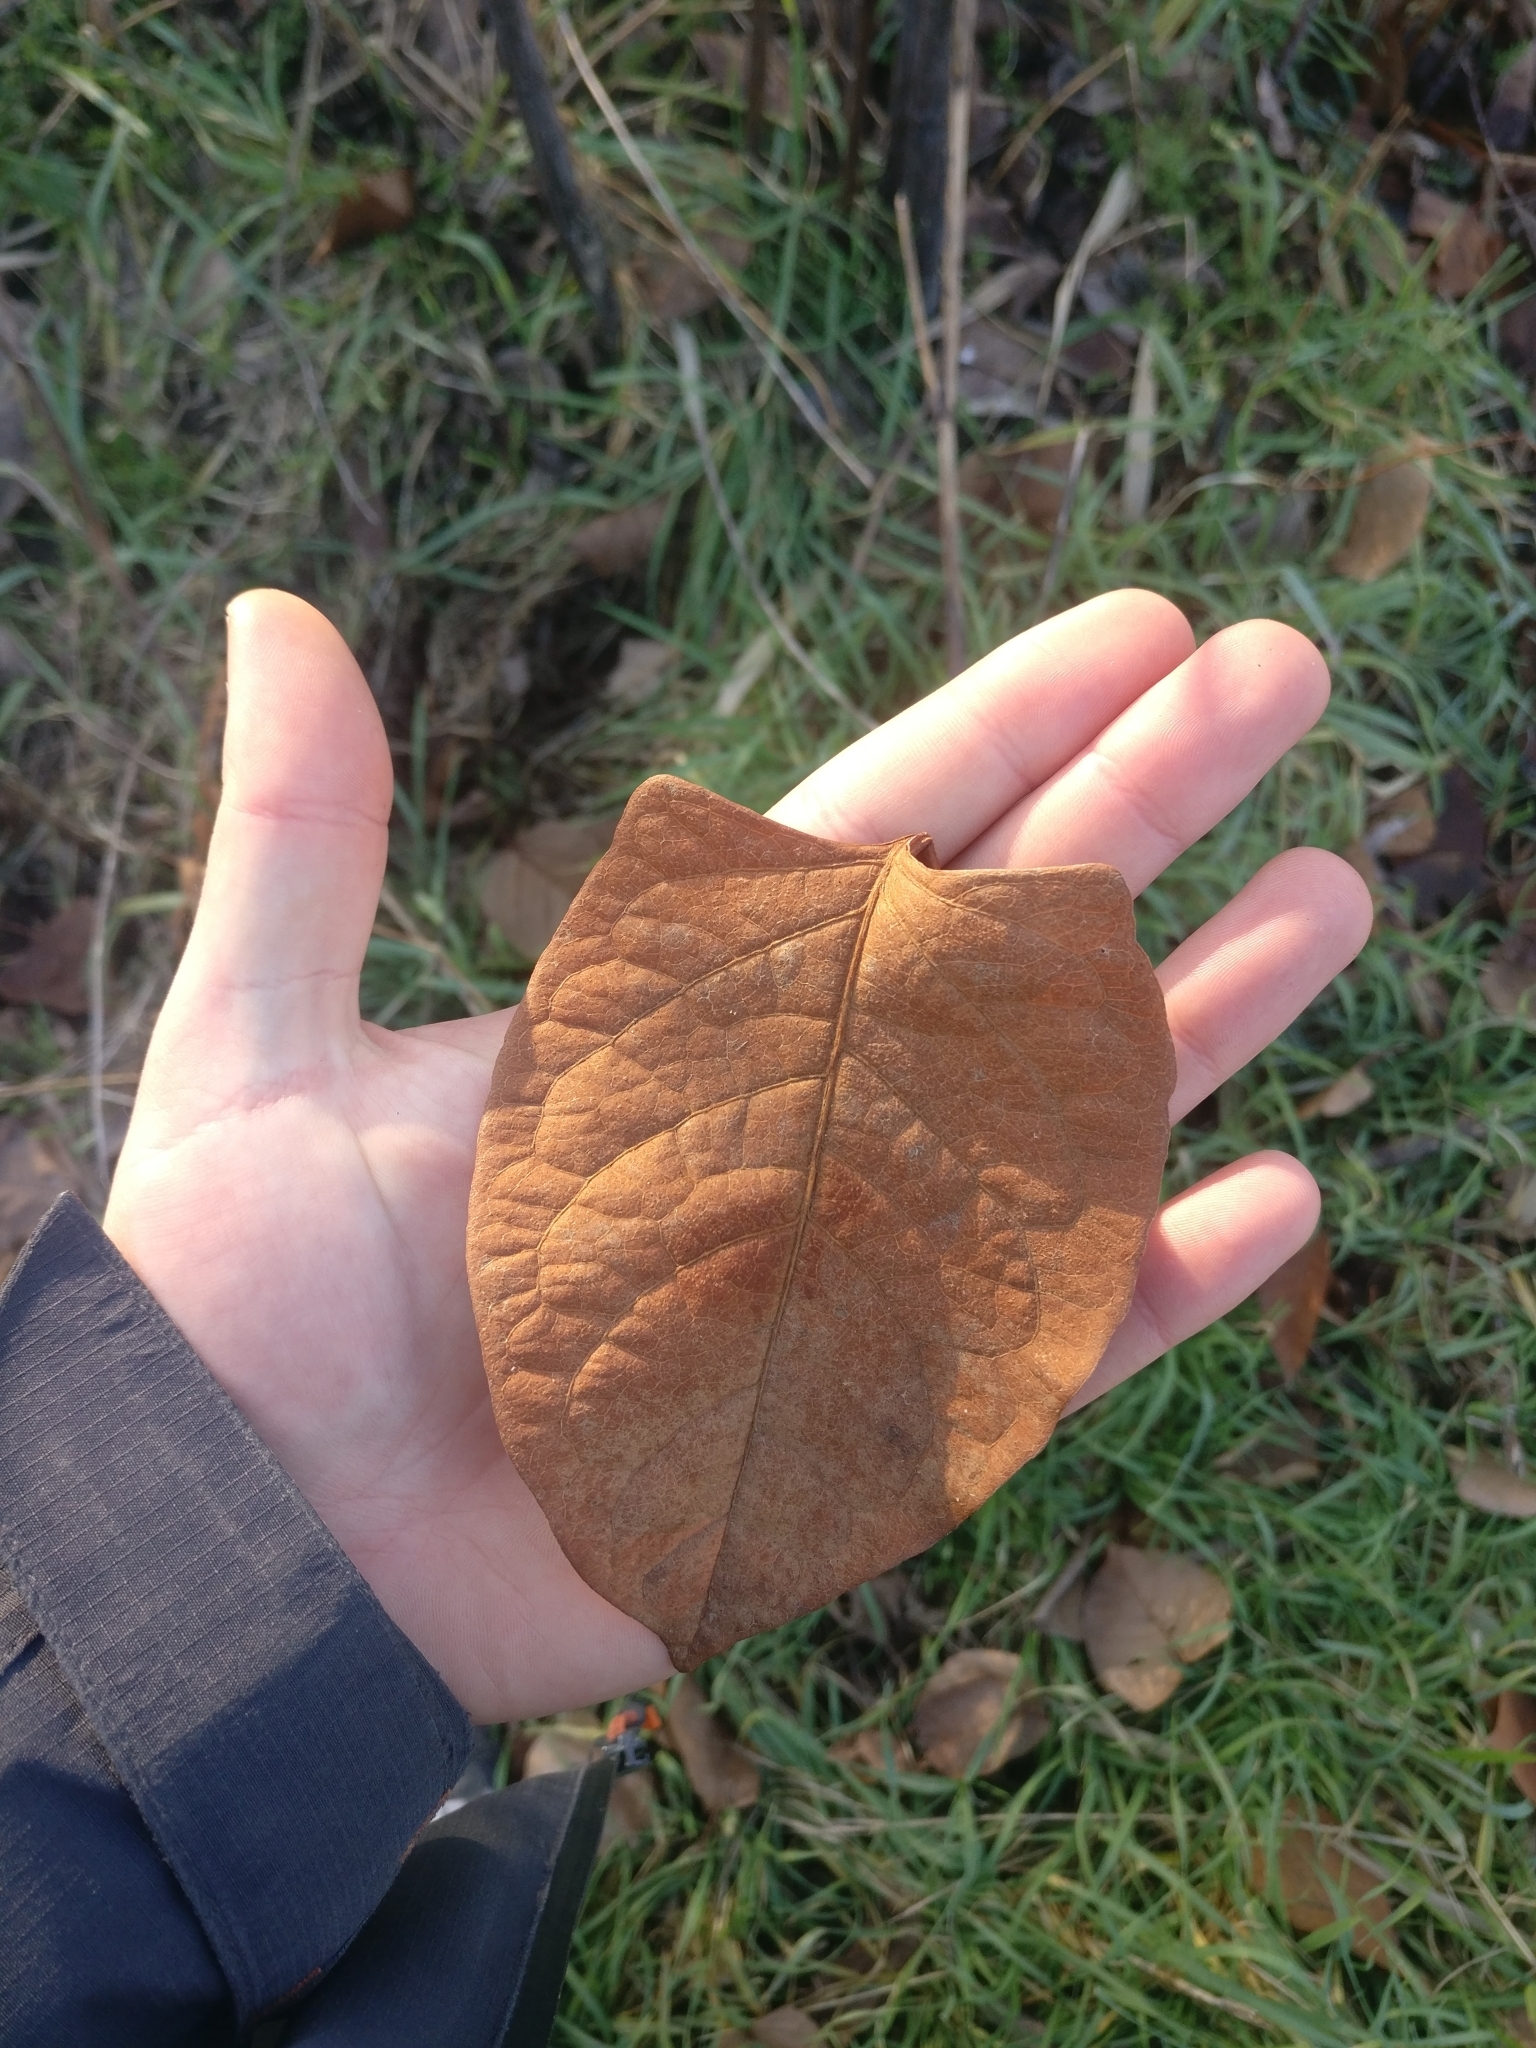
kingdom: Plantae
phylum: Tracheophyta
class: Magnoliopsida
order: Caryophyllales
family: Polygonaceae
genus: Reynoutria
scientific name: Reynoutria japonica
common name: Japanese knotweed
